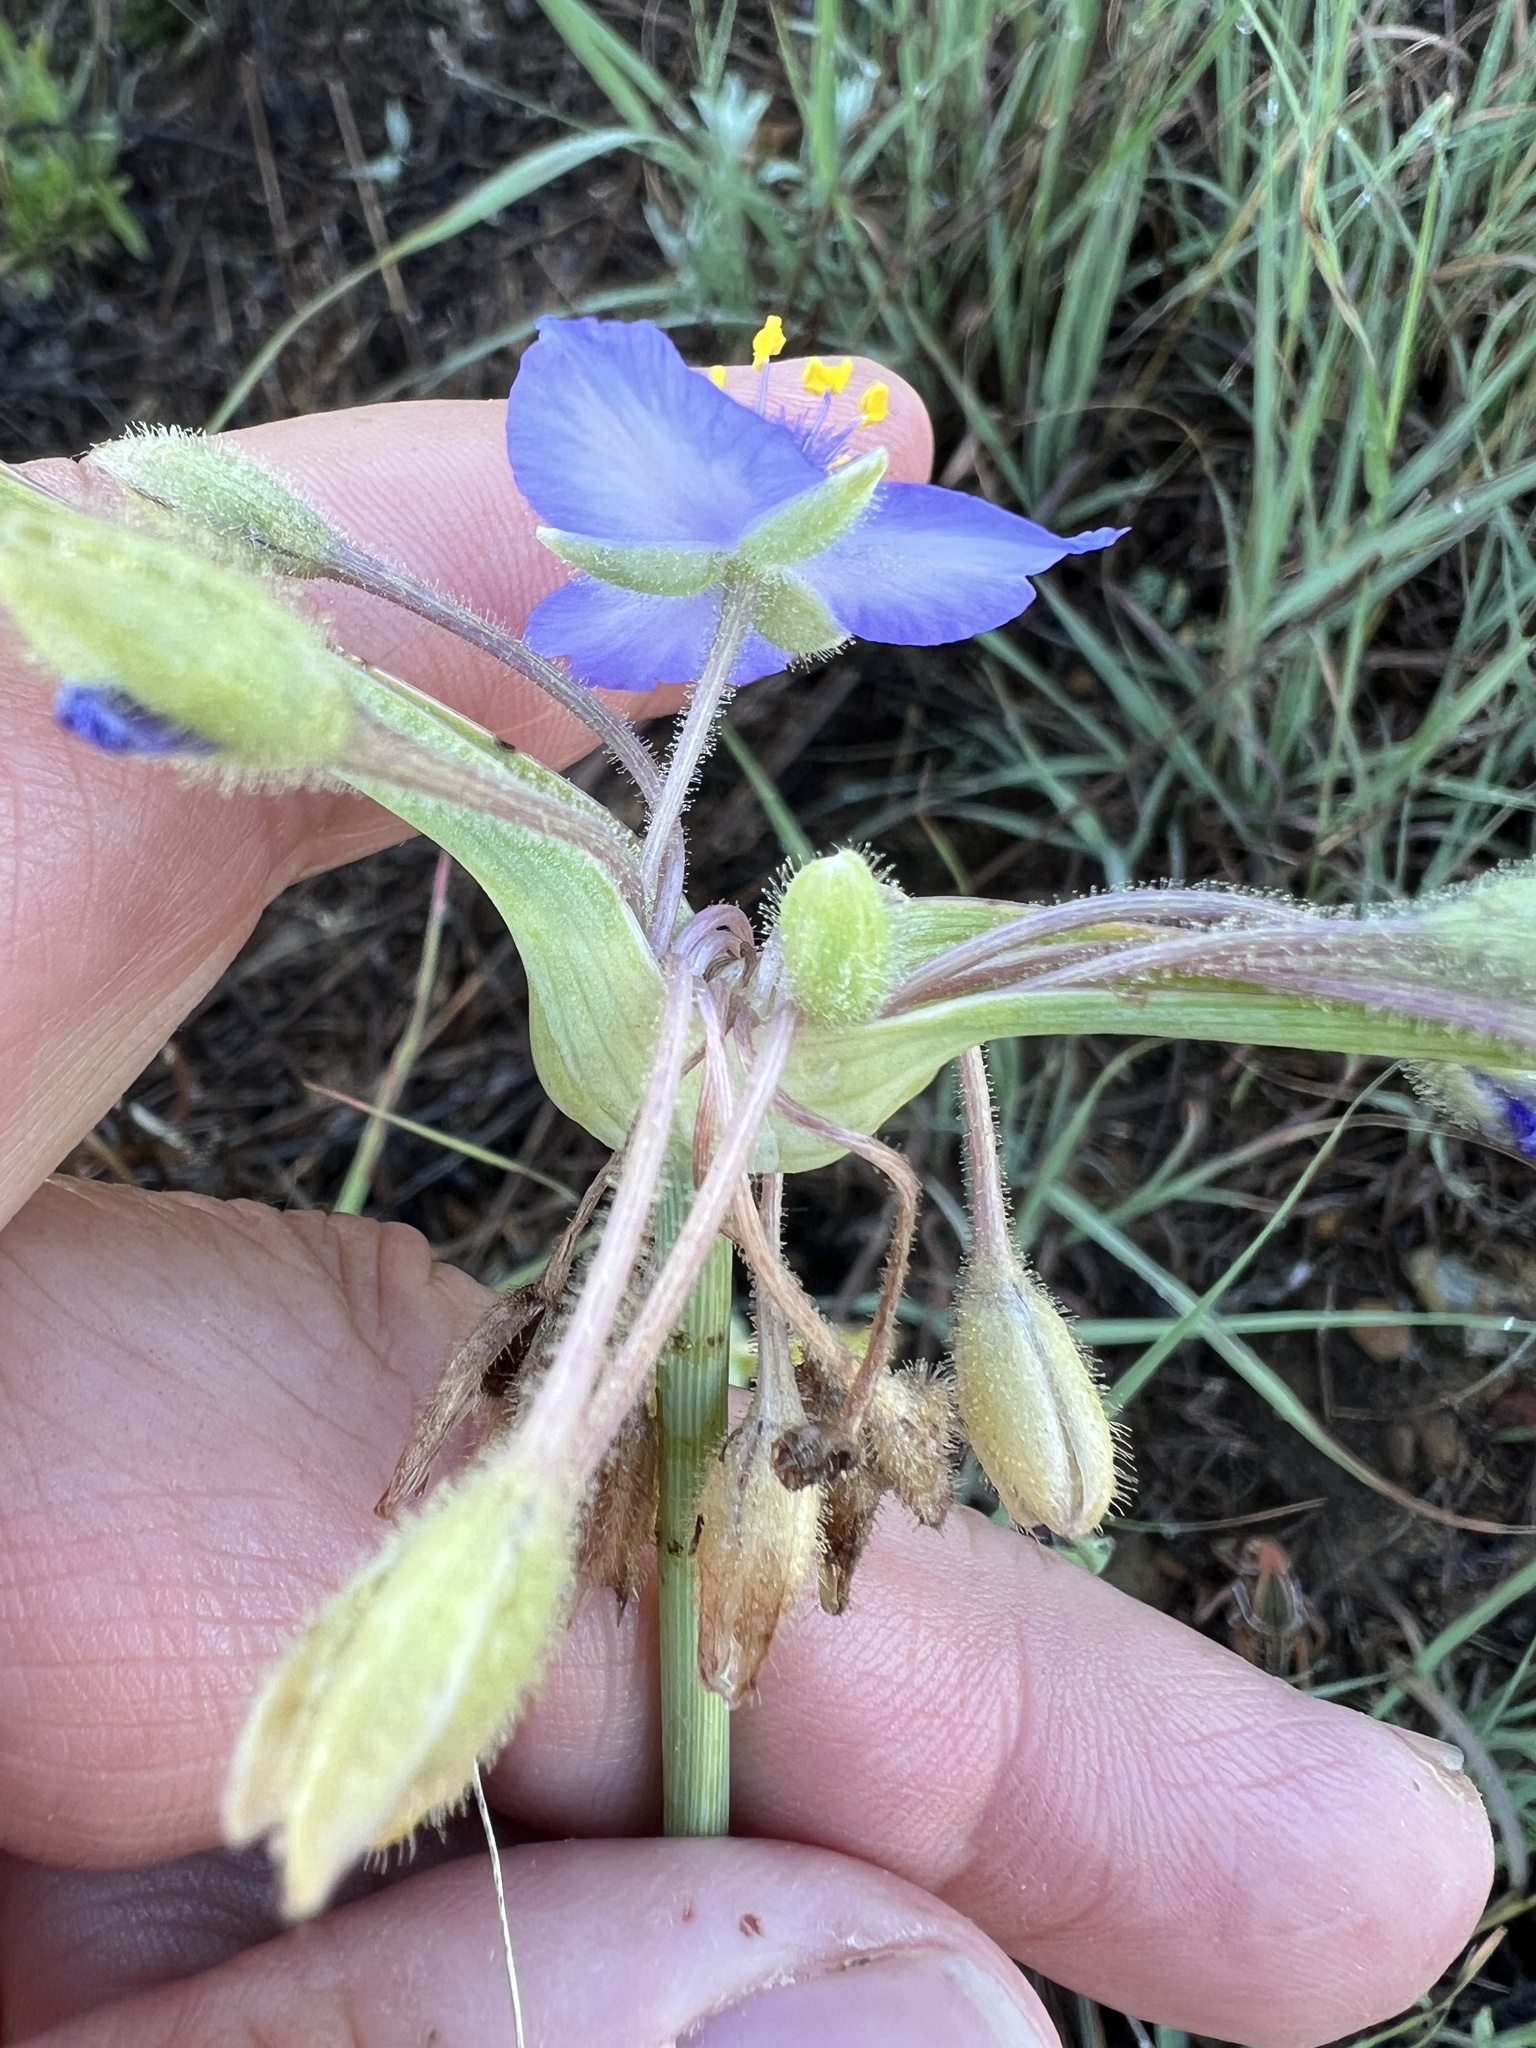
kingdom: Plantae
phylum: Tracheophyta
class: Liliopsida
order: Commelinales
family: Commelinaceae
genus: Tradescantia
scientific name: Tradescantia occidentalis
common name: Prairie spiderwort
